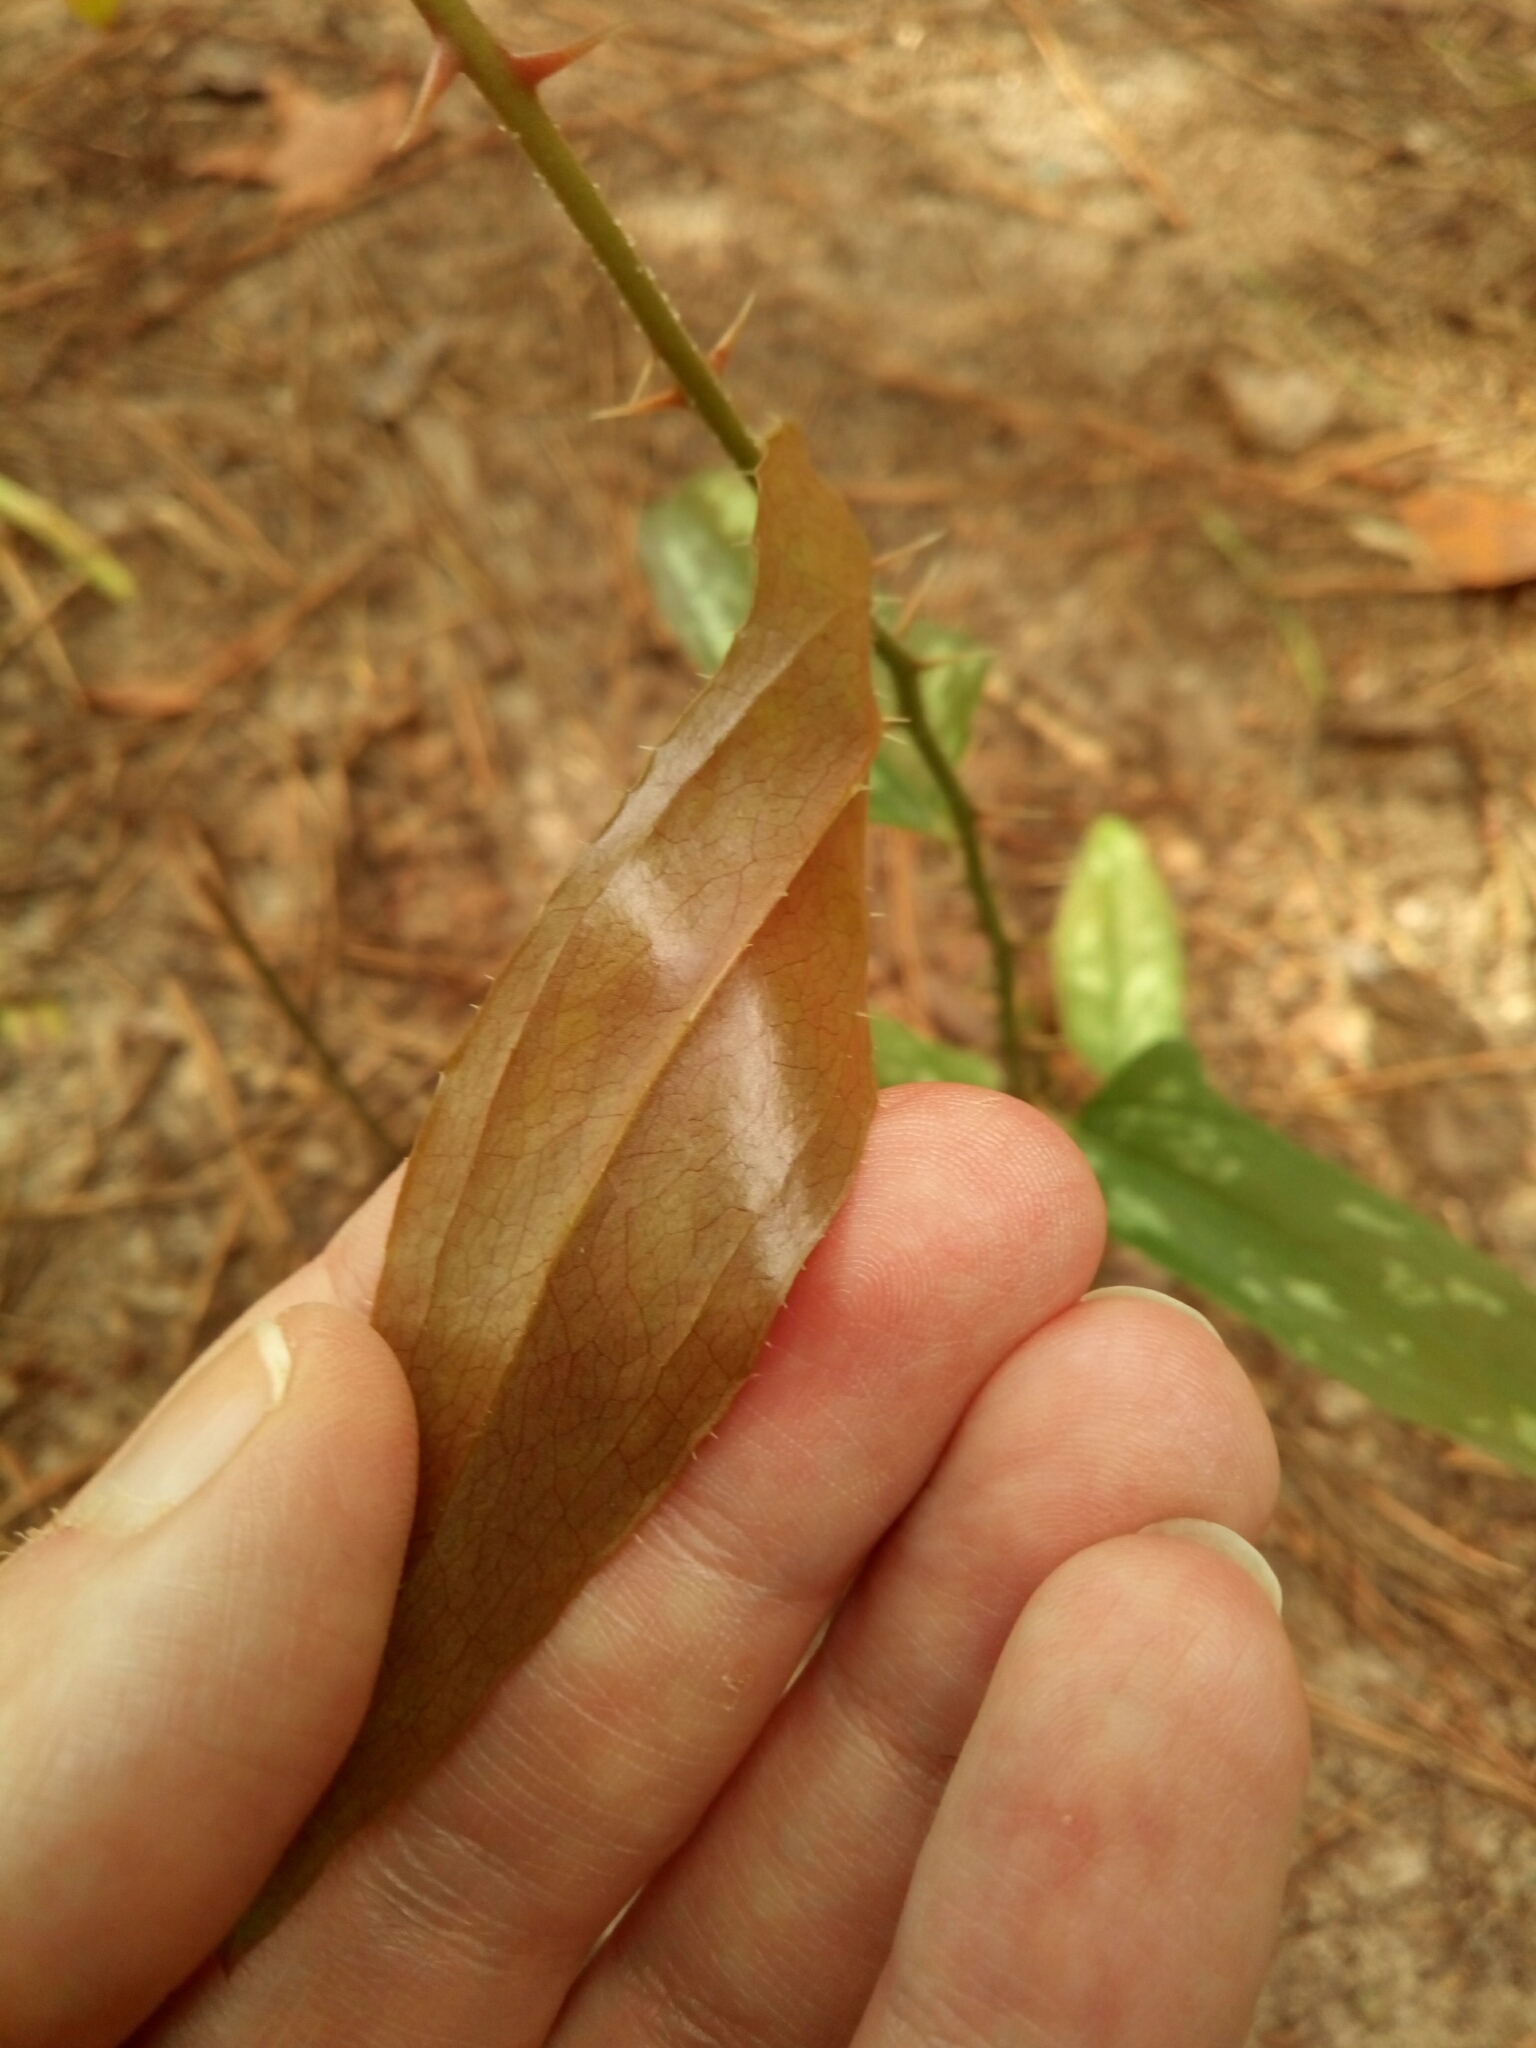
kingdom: Plantae
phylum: Tracheophyta
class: Liliopsida
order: Liliales
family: Smilacaceae
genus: Smilax
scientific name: Smilax bona-nox
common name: Catbrier
